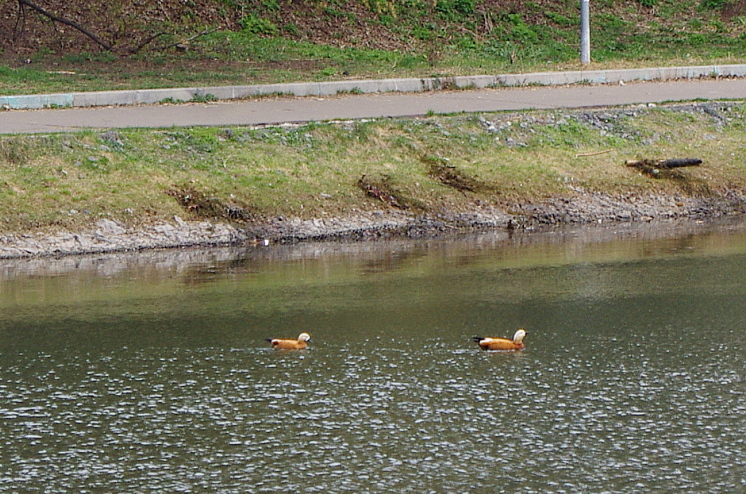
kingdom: Animalia
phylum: Chordata
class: Aves
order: Anseriformes
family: Anatidae
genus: Tadorna
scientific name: Tadorna ferruginea
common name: Ruddy shelduck
